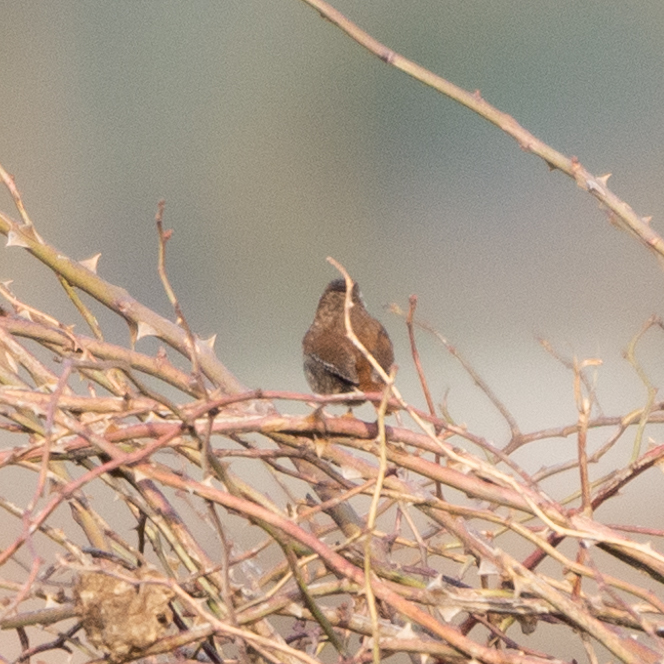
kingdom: Animalia
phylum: Chordata
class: Aves
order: Passeriformes
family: Troglodytidae
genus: Troglodytes
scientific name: Troglodytes troglodytes
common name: Eurasian wren
